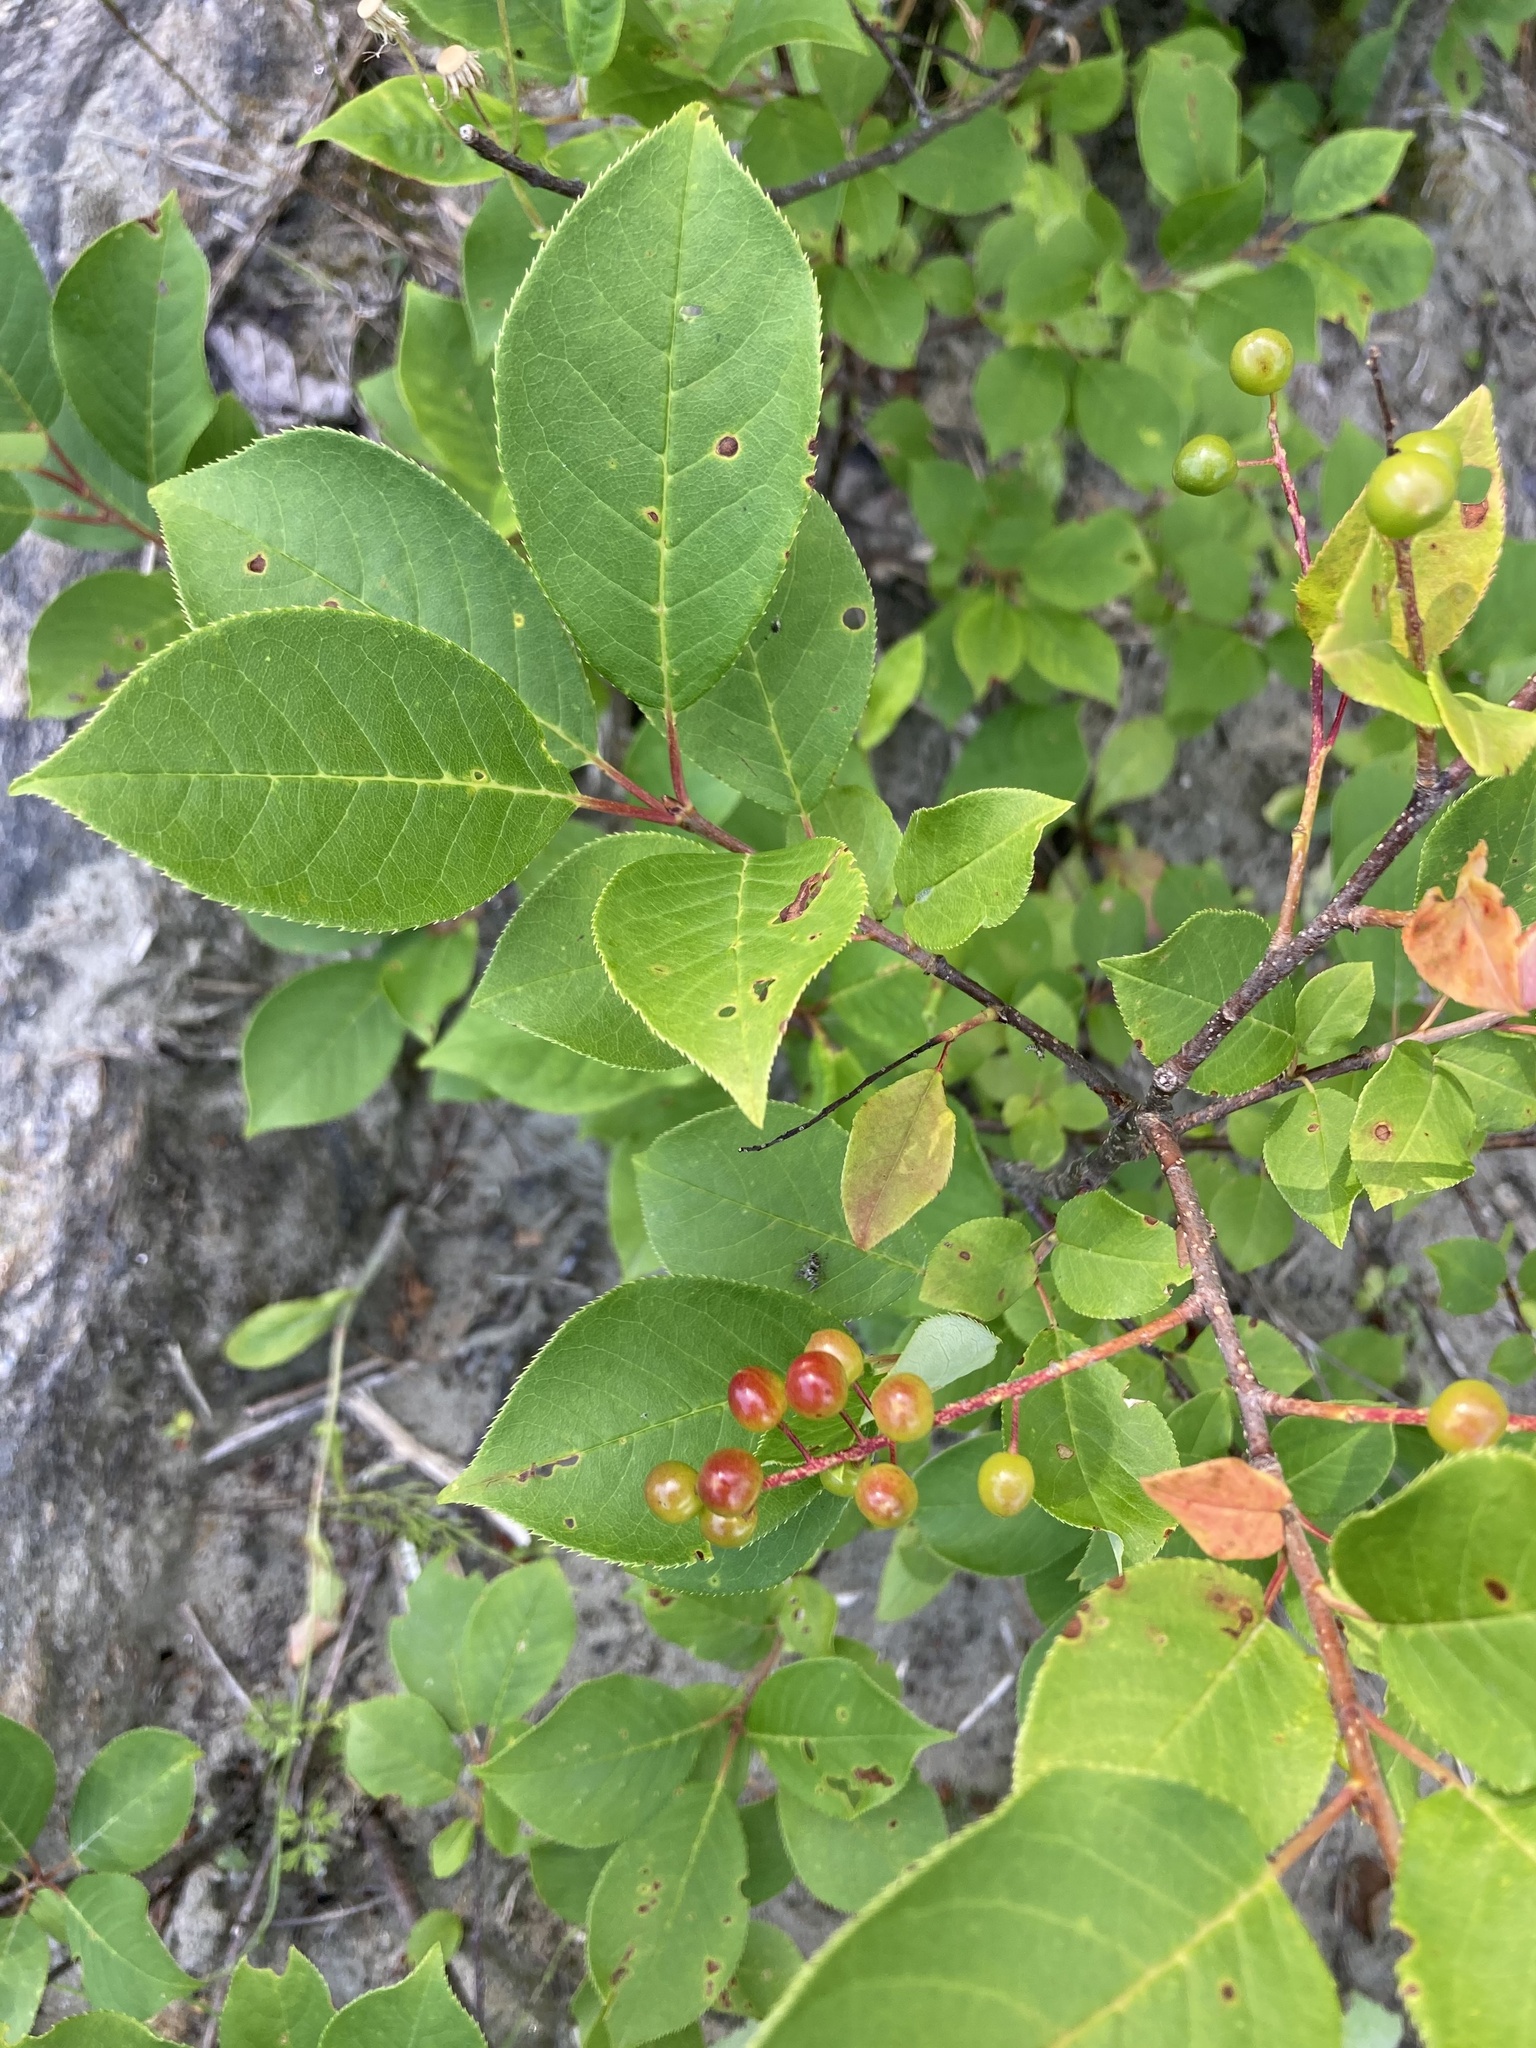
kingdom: Plantae
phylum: Tracheophyta
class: Magnoliopsida
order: Rosales
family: Rosaceae
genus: Prunus
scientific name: Prunus virginiana
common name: Chokecherry
